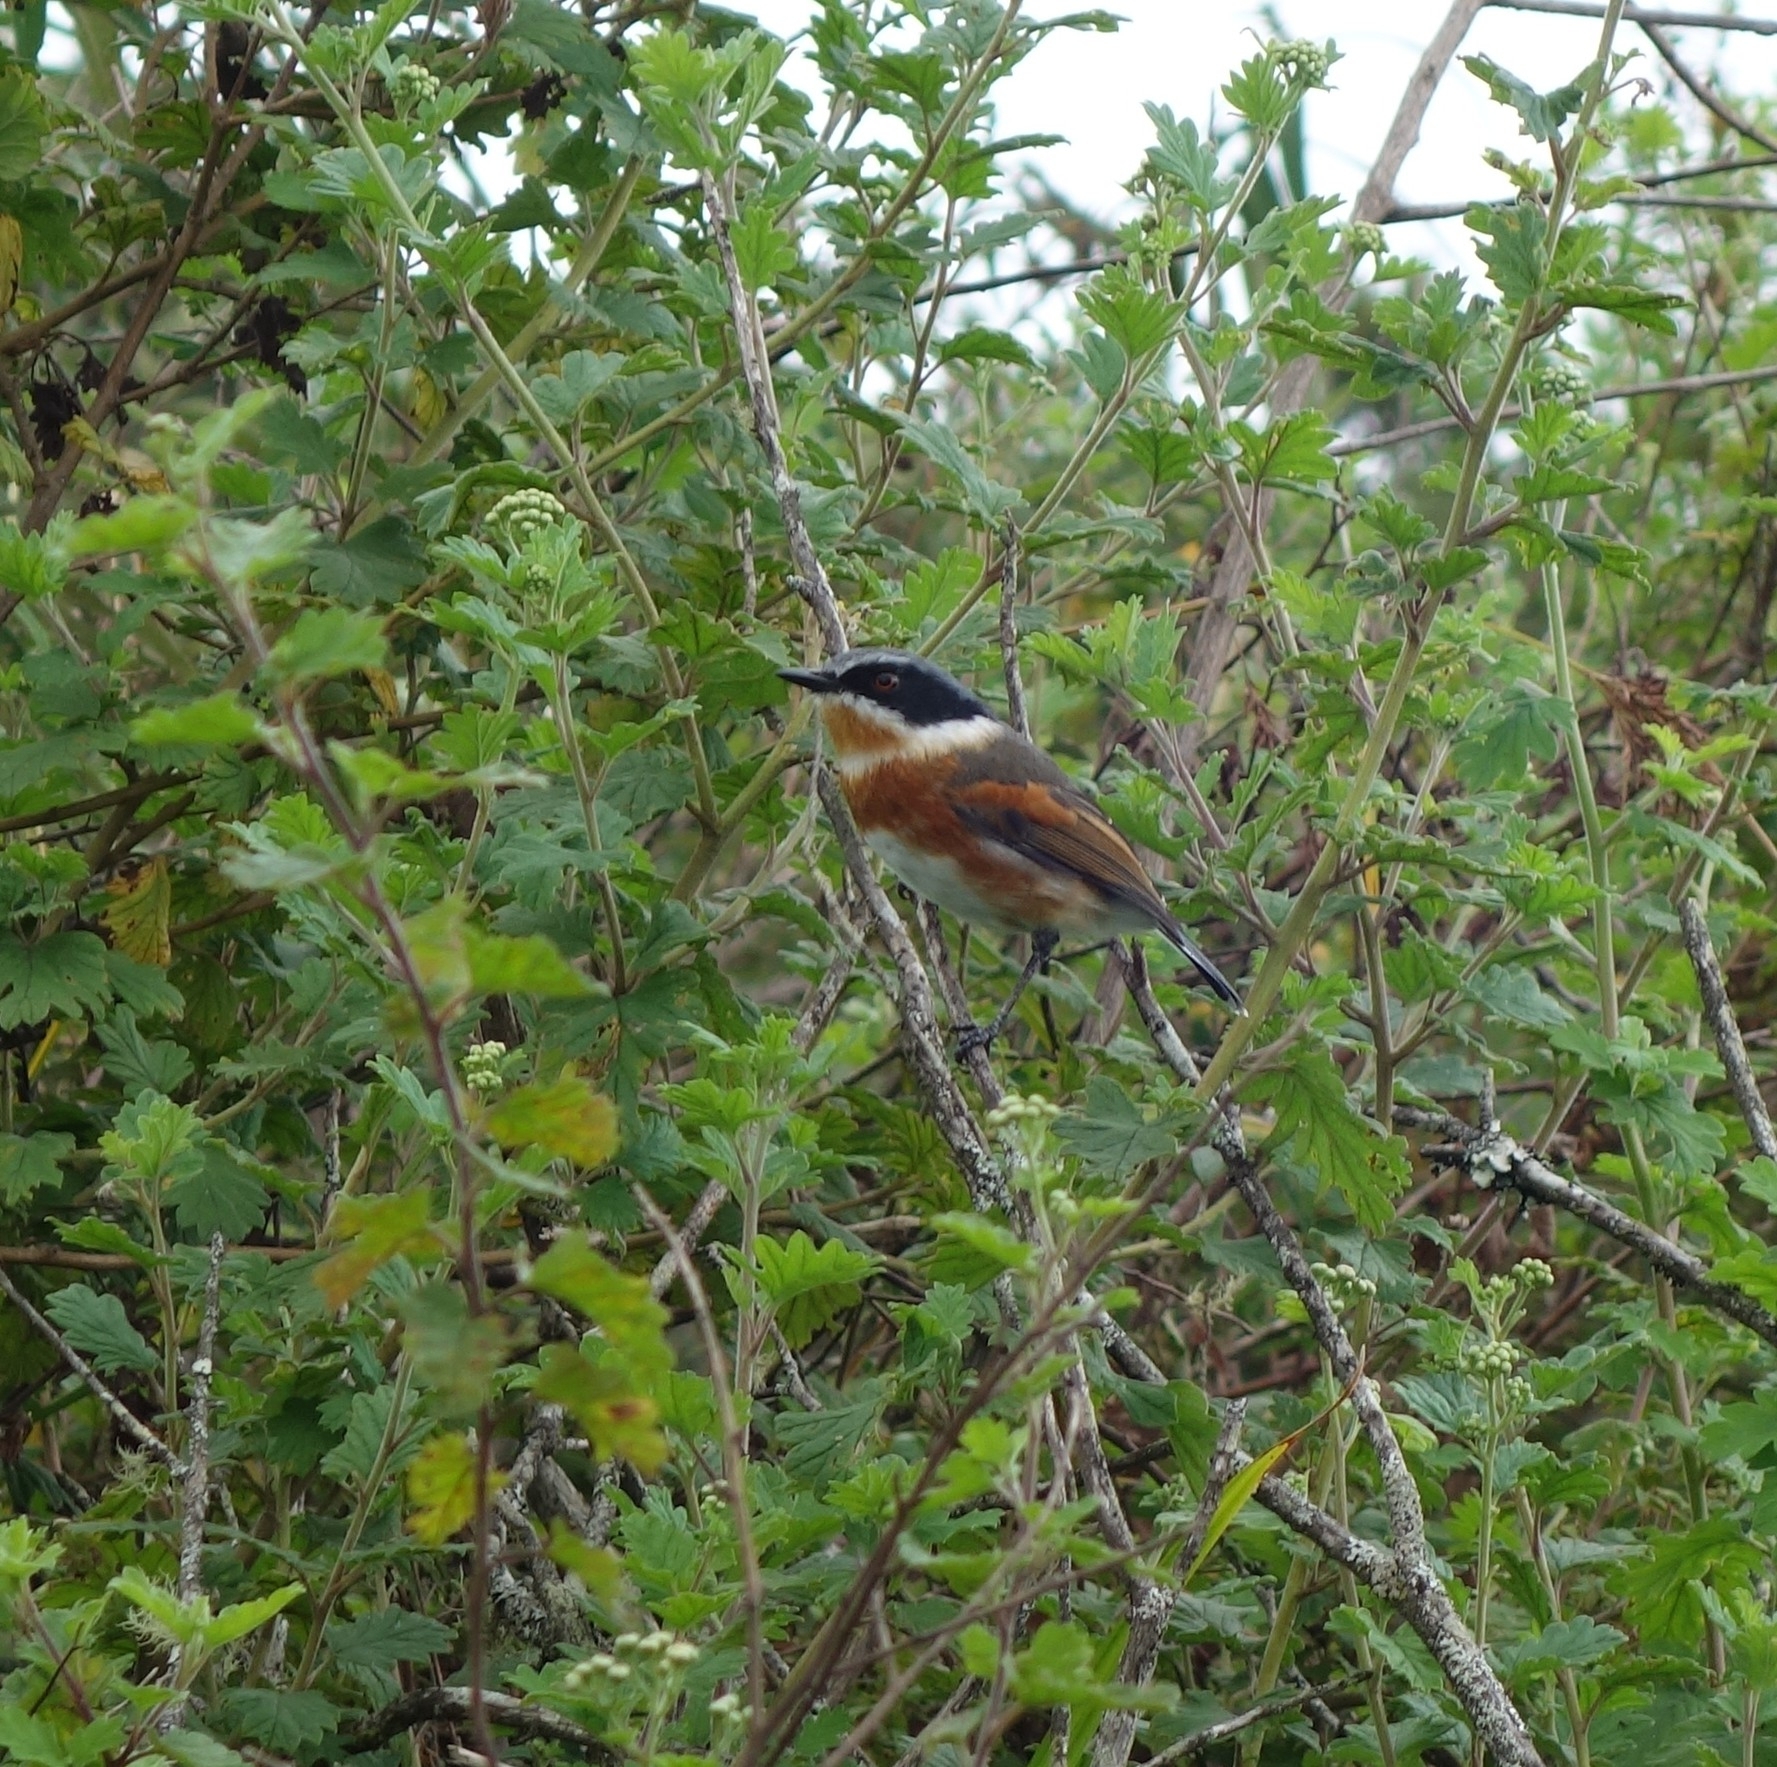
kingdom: Animalia
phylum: Chordata
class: Aves
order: Passeriformes
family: Platysteiridae
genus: Batis
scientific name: Batis capensis
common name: Cape batis
